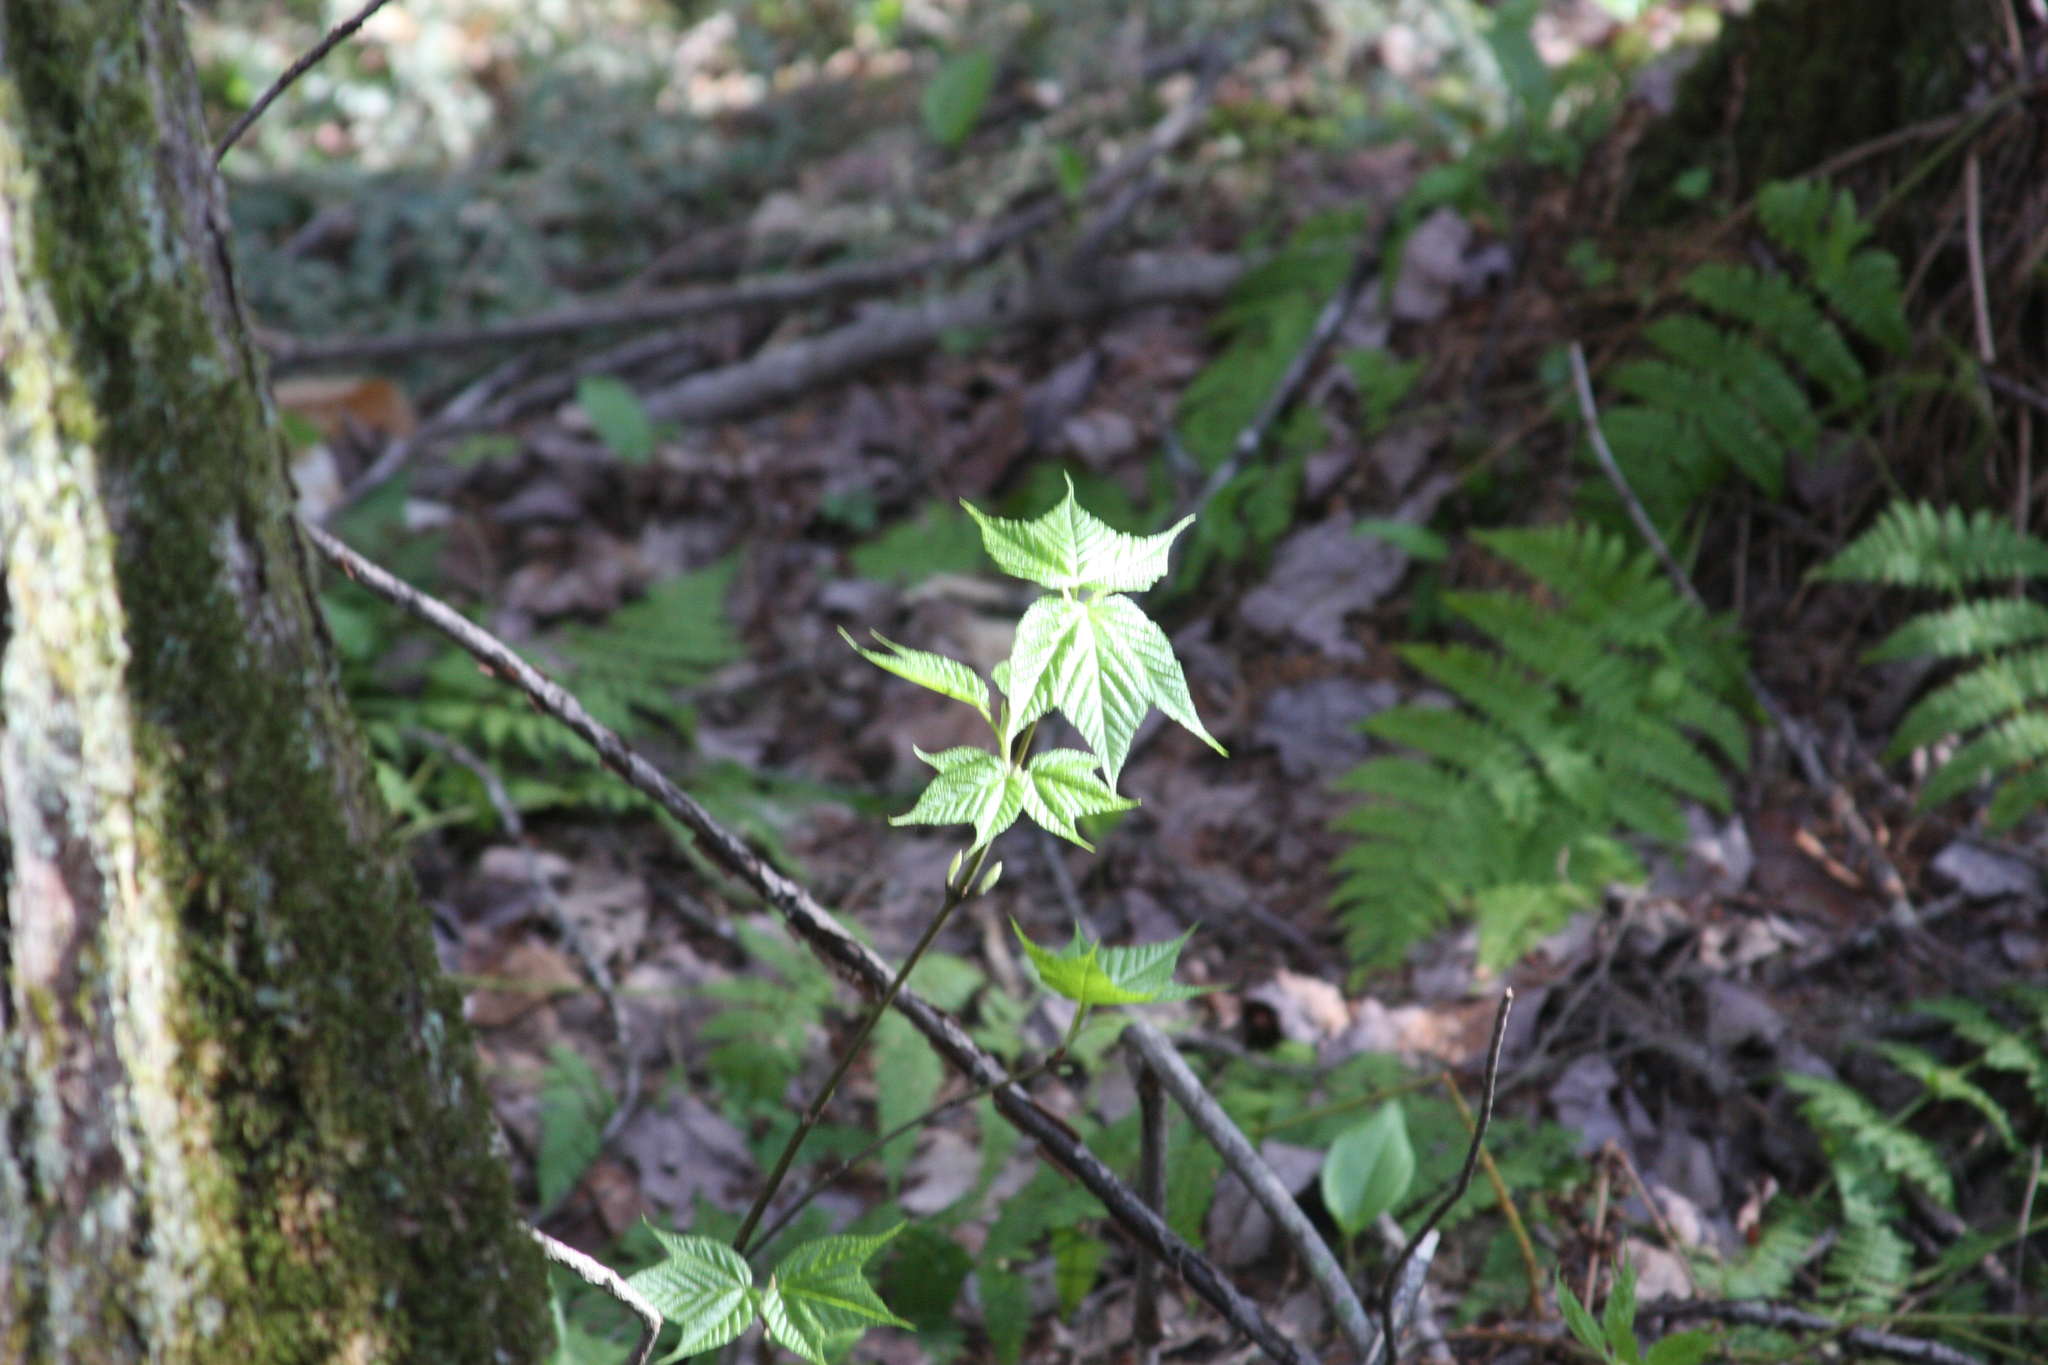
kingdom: Plantae
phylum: Tracheophyta
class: Magnoliopsida
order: Sapindales
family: Sapindaceae
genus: Acer
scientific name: Acer pensylvanicum
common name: Moosewood
